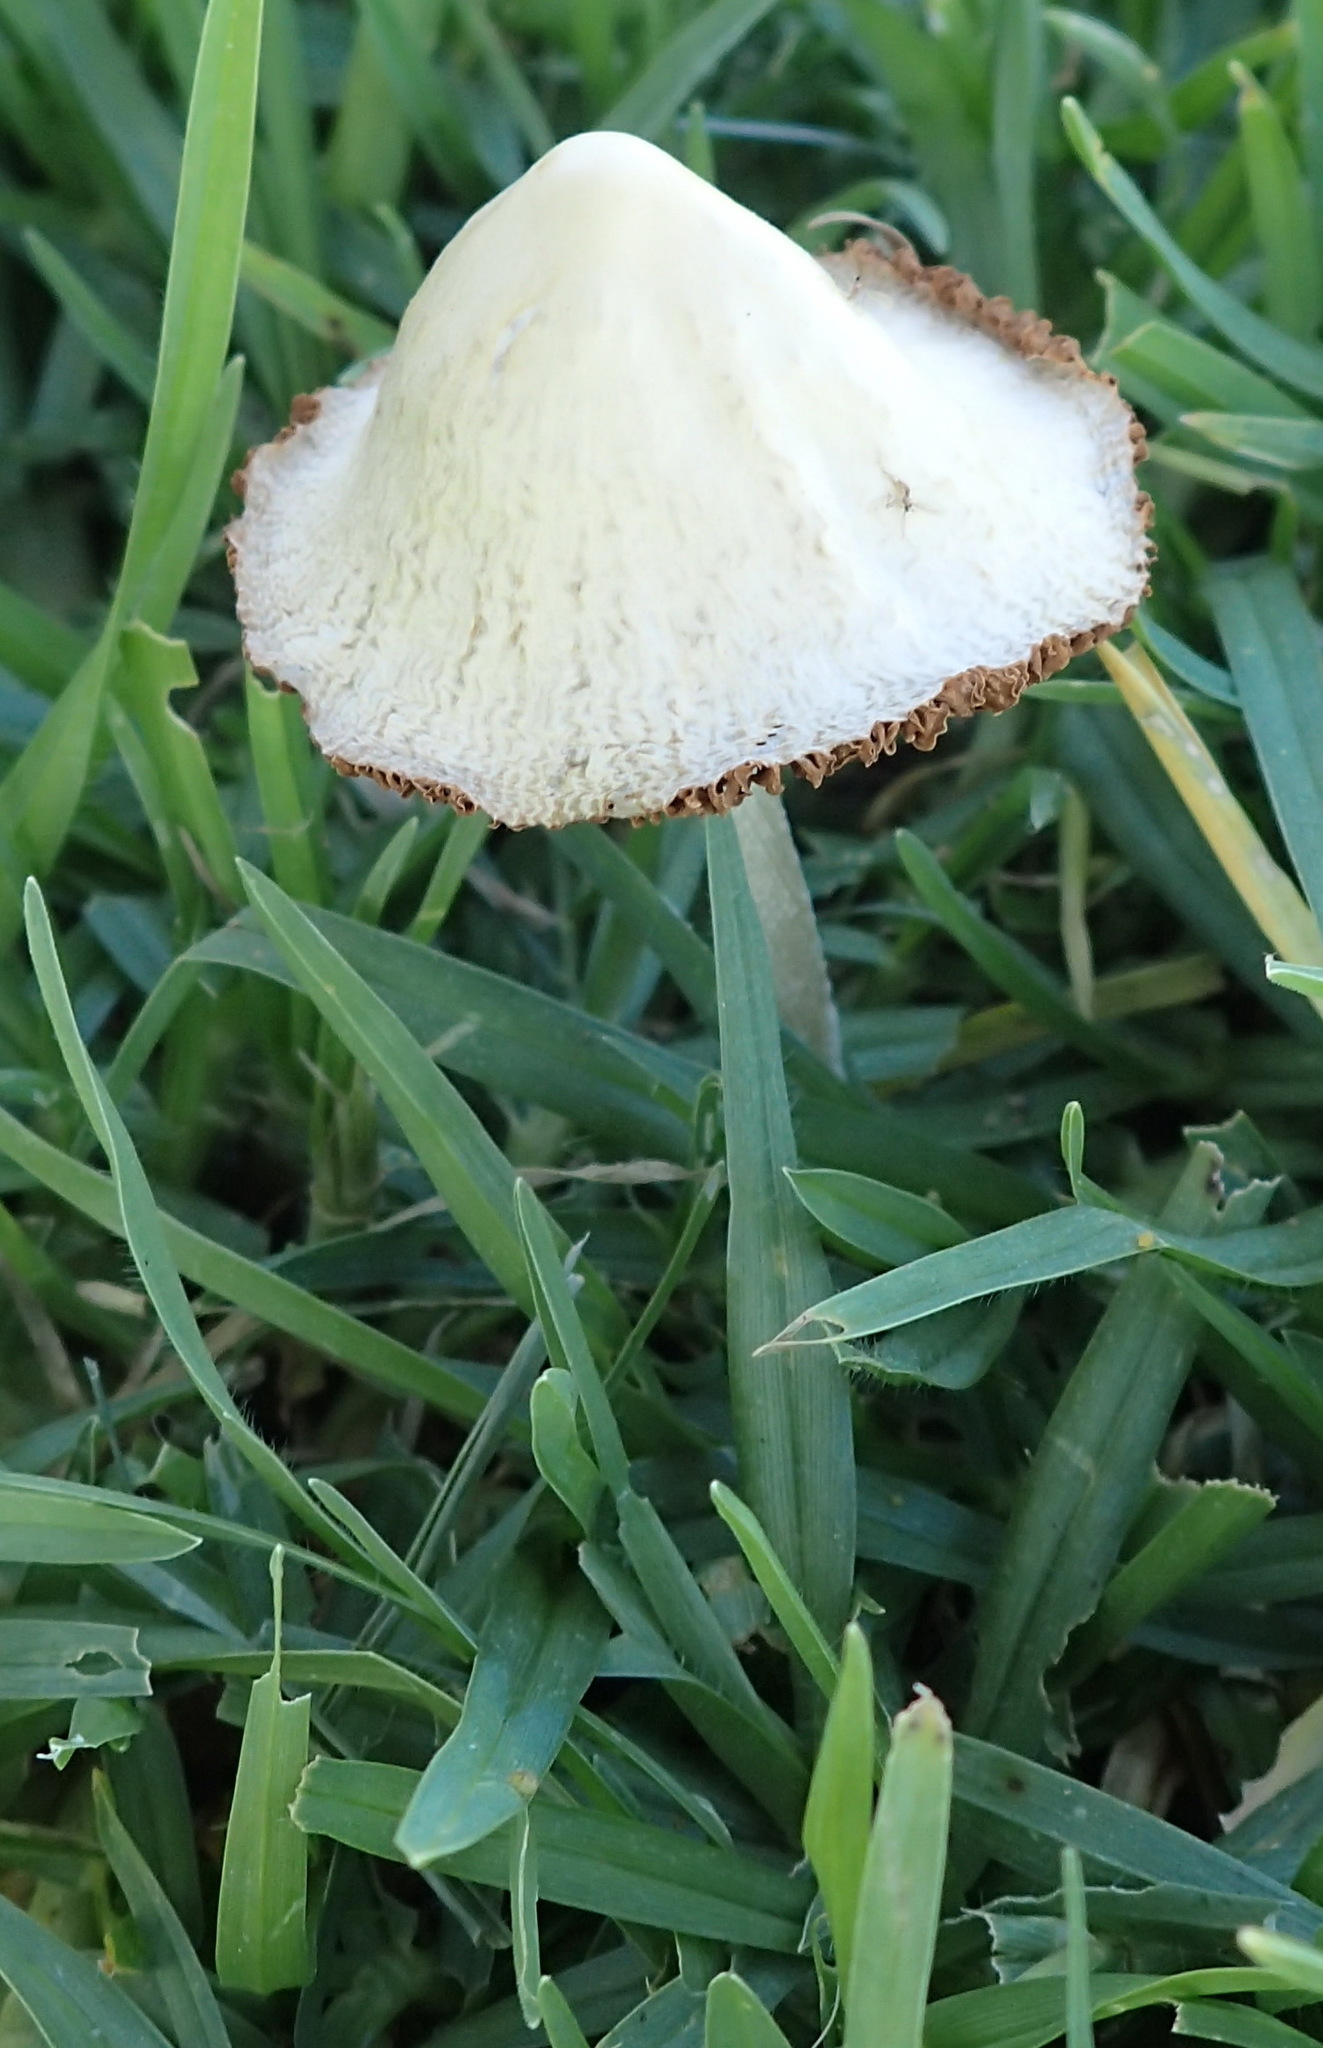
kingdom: Fungi
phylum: Basidiomycota
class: Agaricomycetes
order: Agaricales
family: Bolbitiaceae
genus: Conocybe
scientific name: Conocybe apala
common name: Milky conecap
